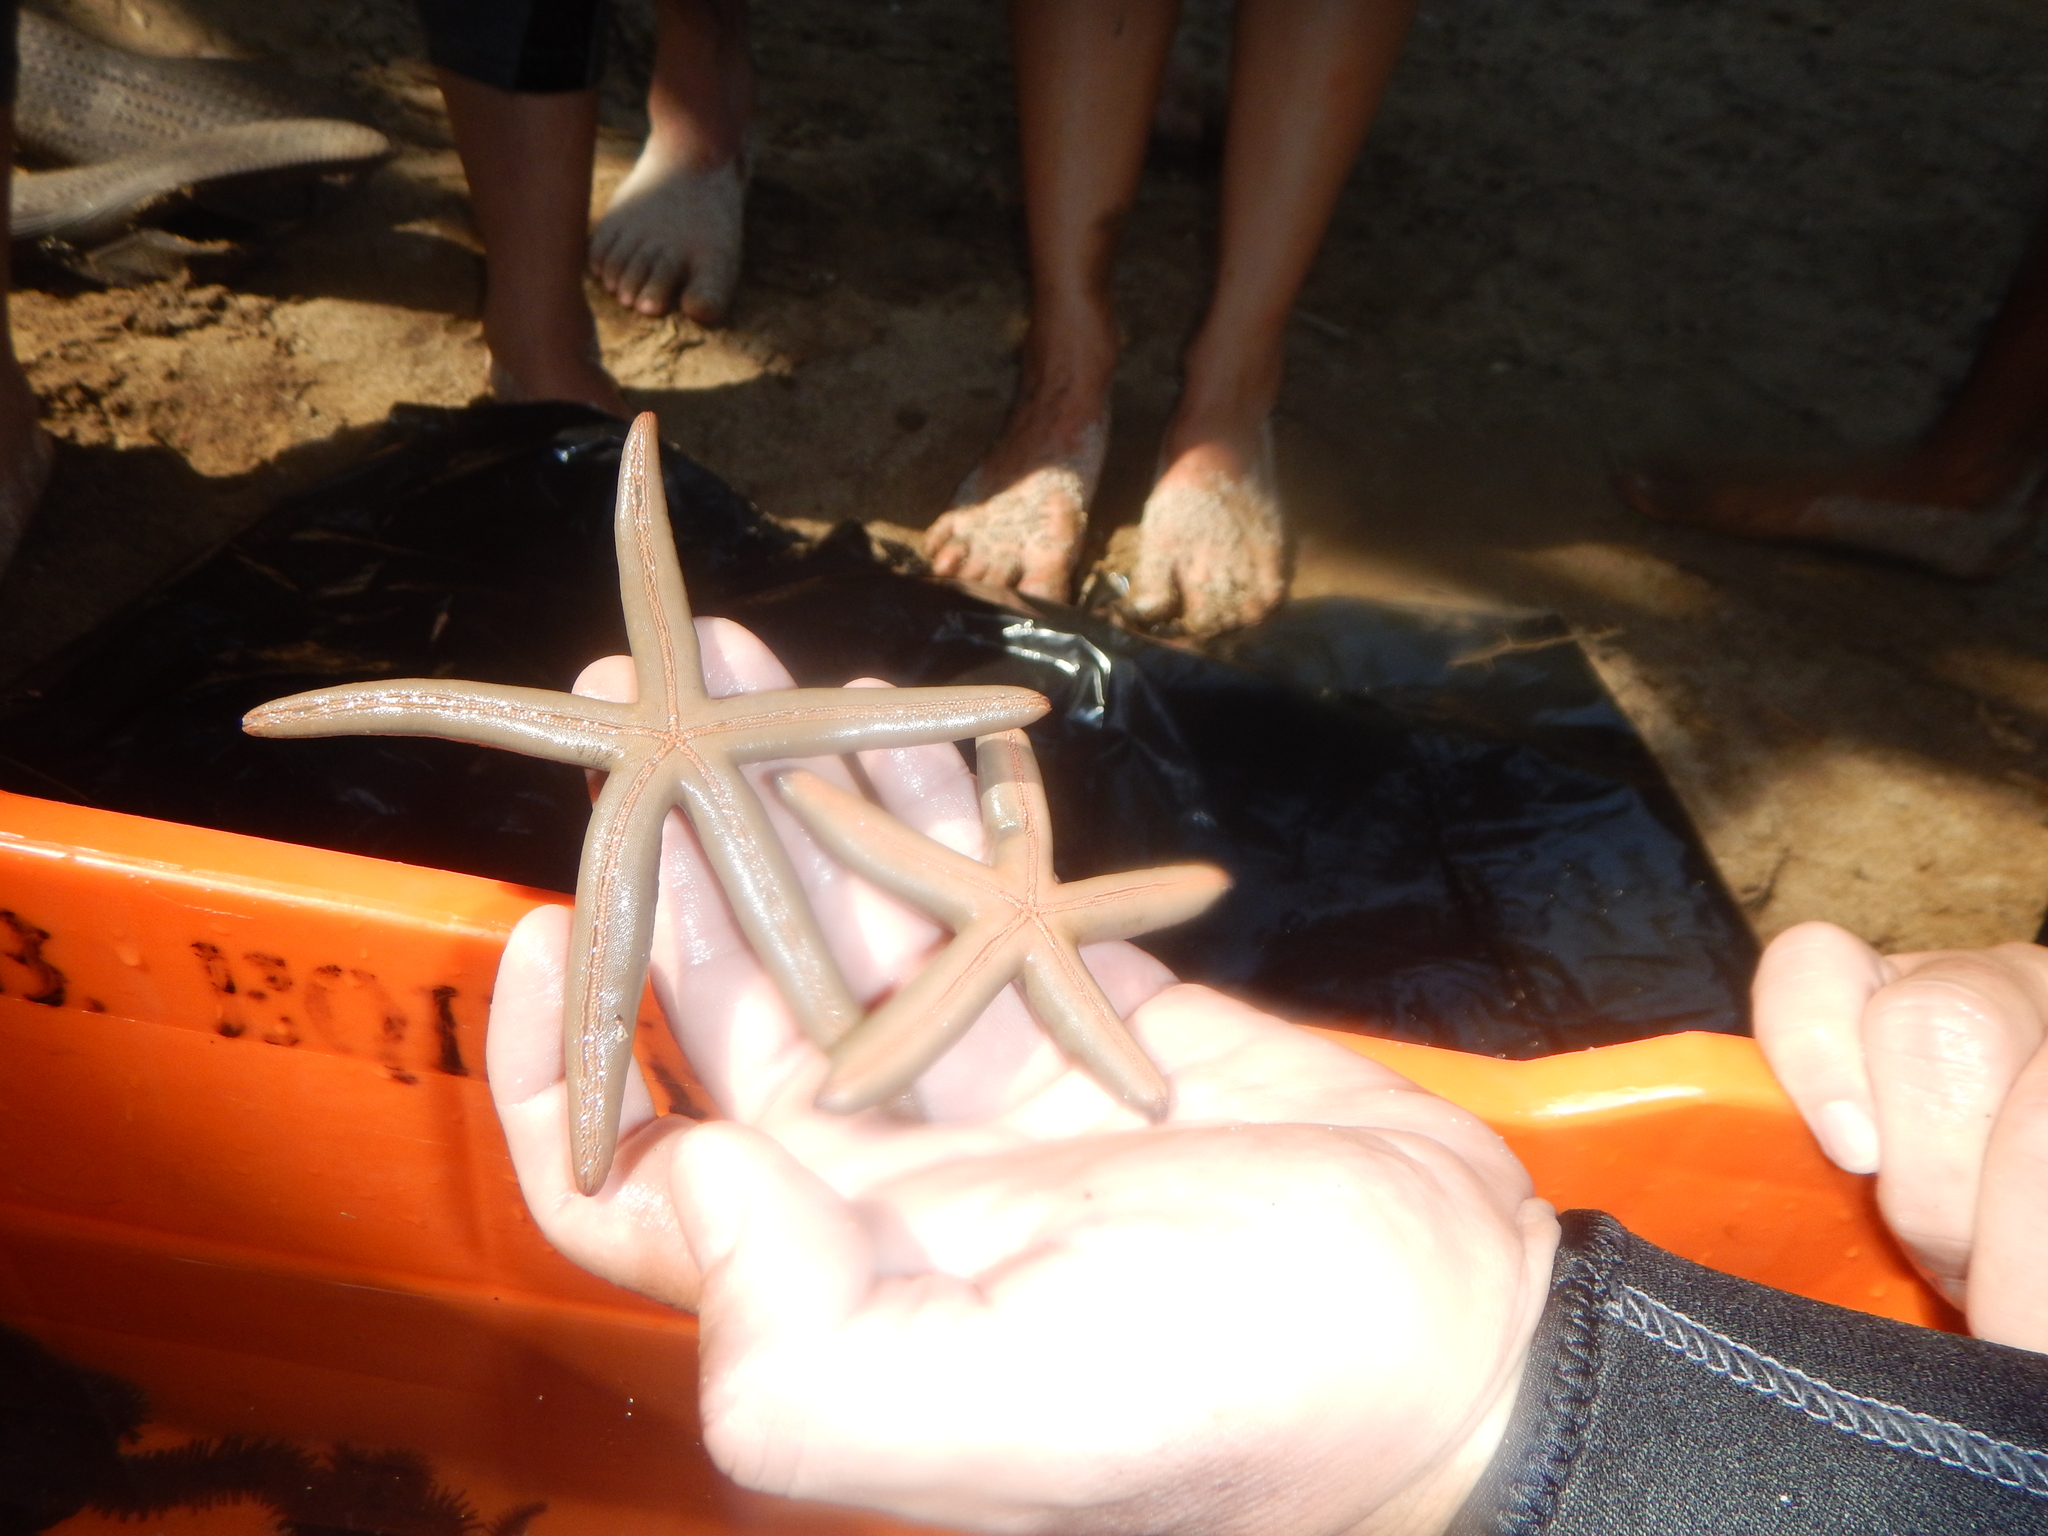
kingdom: Animalia
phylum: Echinodermata
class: Asteroidea
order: Valvatida
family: Ophidiasteridae
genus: Phataria
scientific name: Phataria unifascialis
